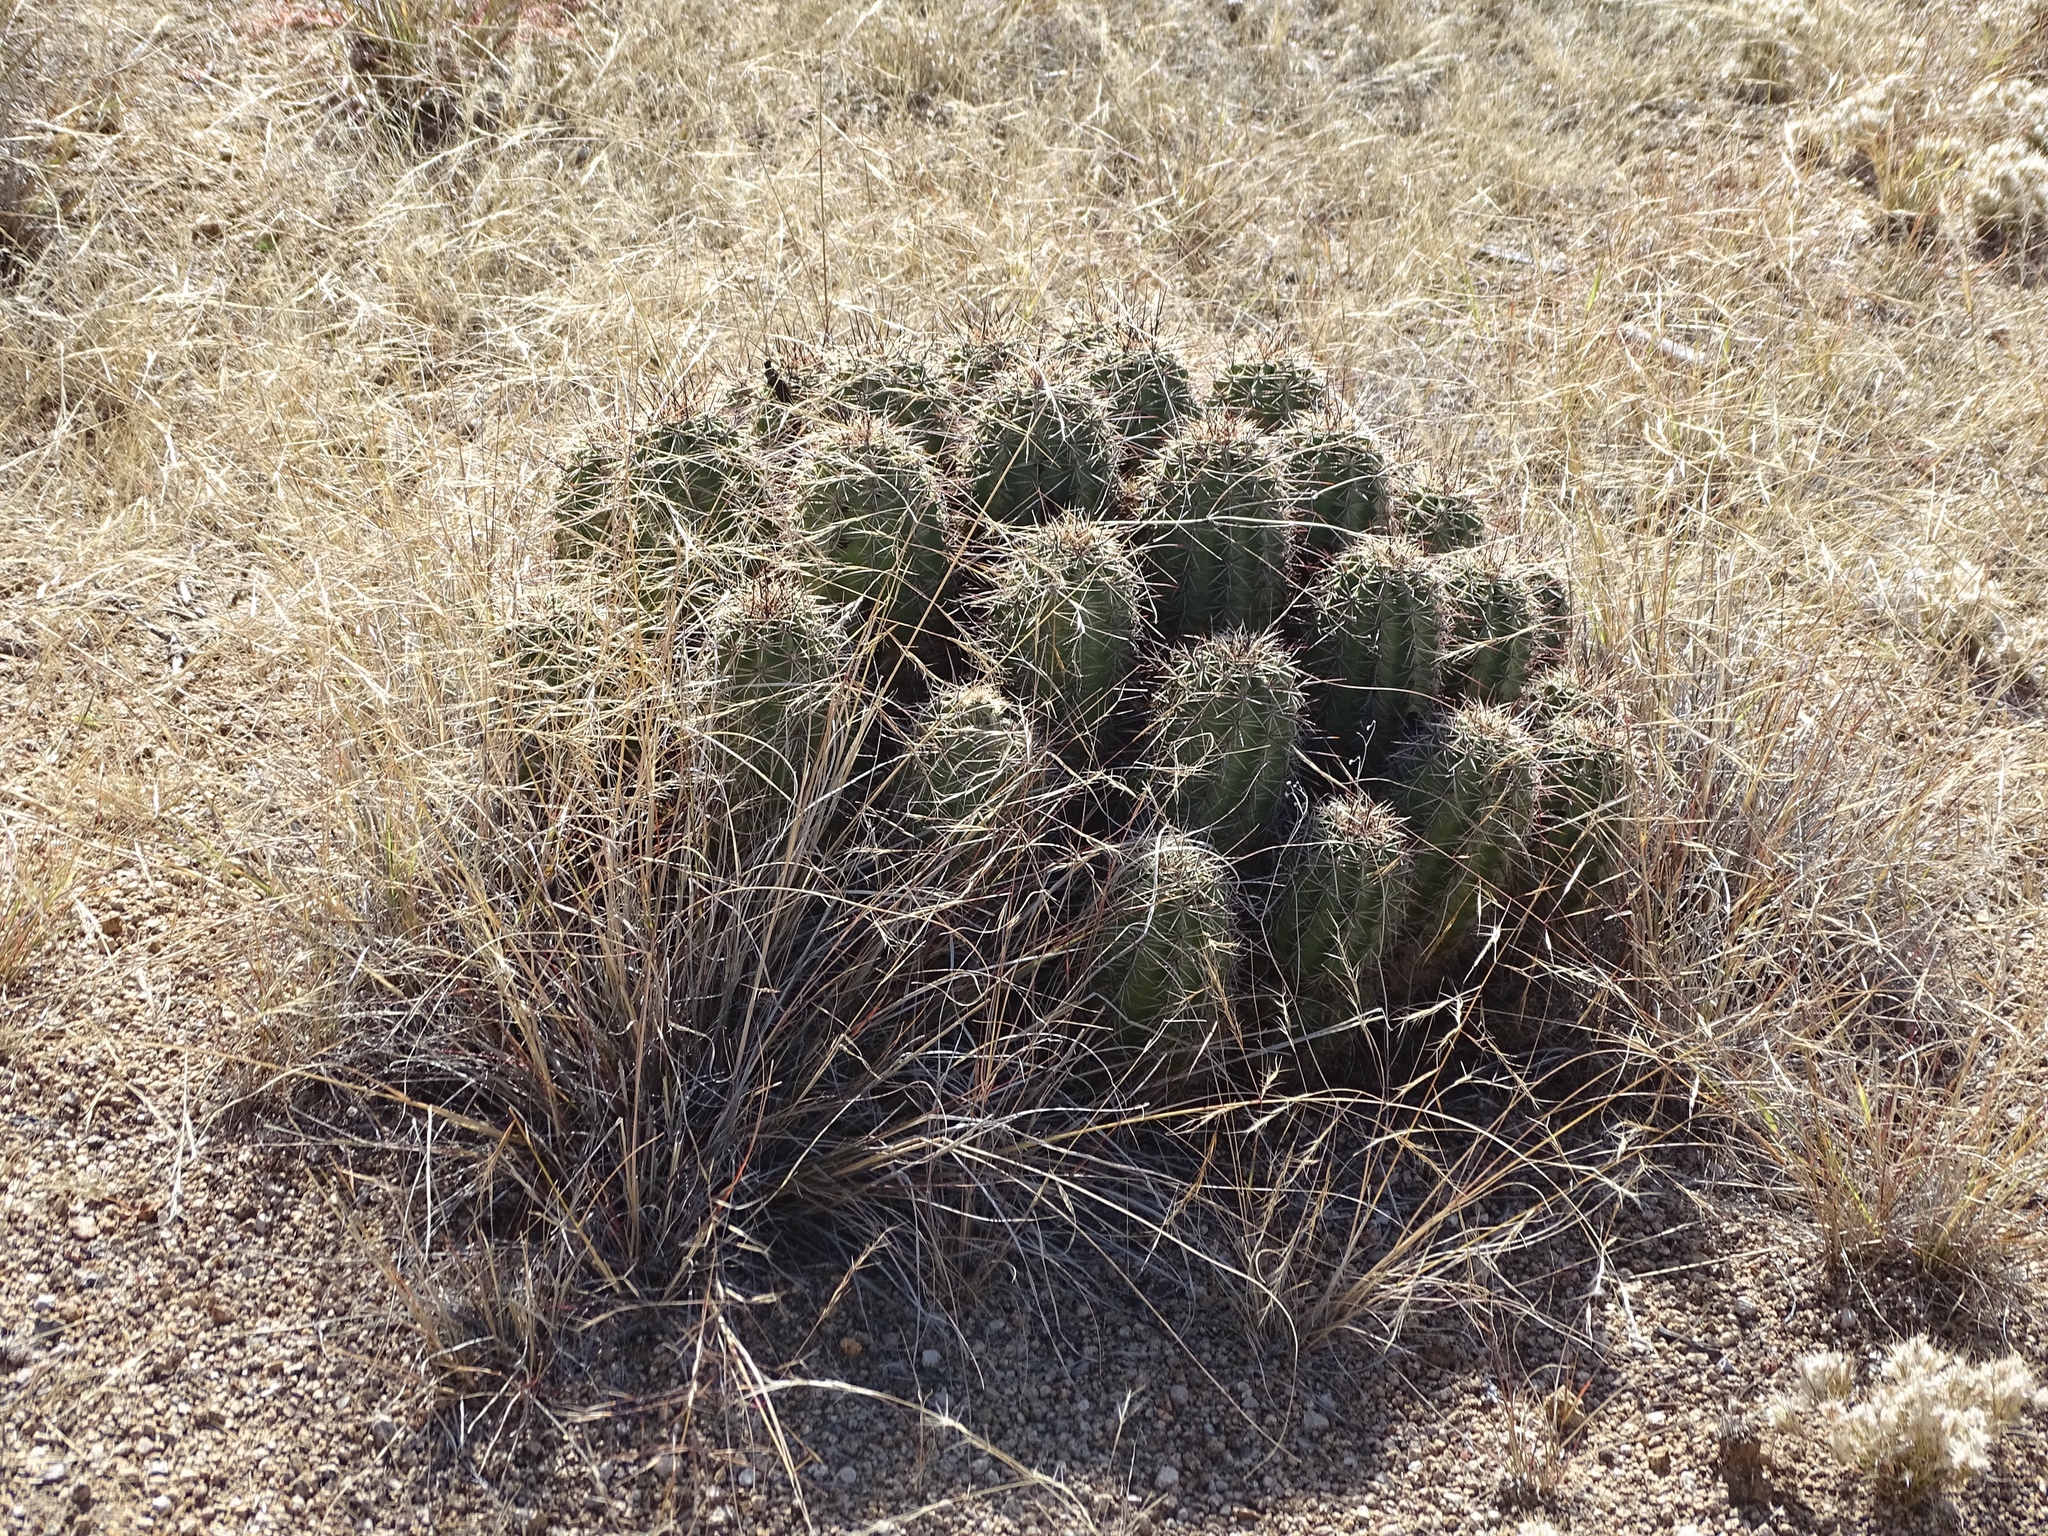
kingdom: Plantae
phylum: Tracheophyta
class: Magnoliopsida
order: Caryophyllales
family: Cactaceae
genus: Echinocereus
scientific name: Echinocereus coccineus
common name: Scarlet hedgehog cactus
